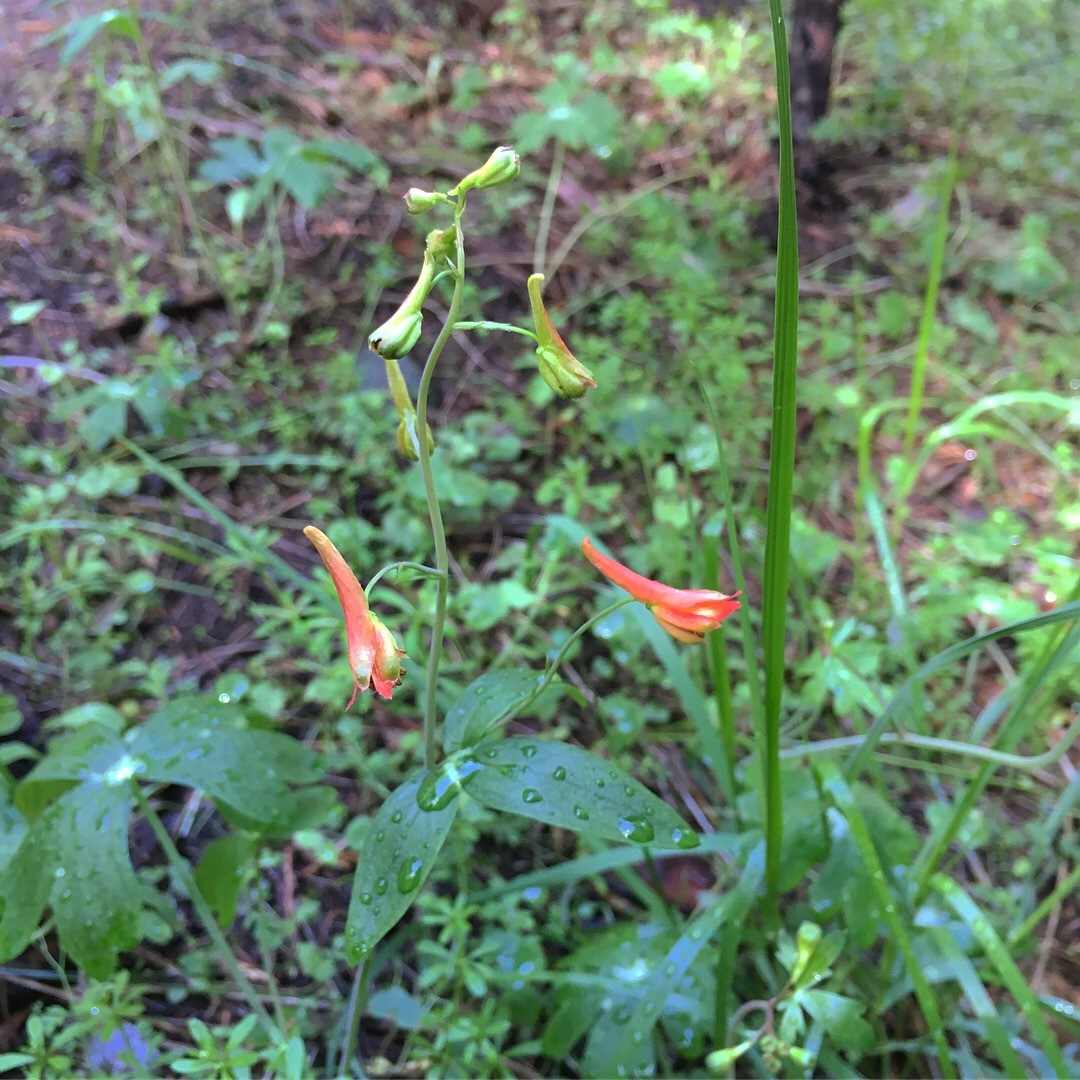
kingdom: Plantae
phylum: Tracheophyta
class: Magnoliopsida
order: Ranunculales
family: Ranunculaceae
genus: Delphinium
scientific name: Delphinium nudicaule
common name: Red larkspur
